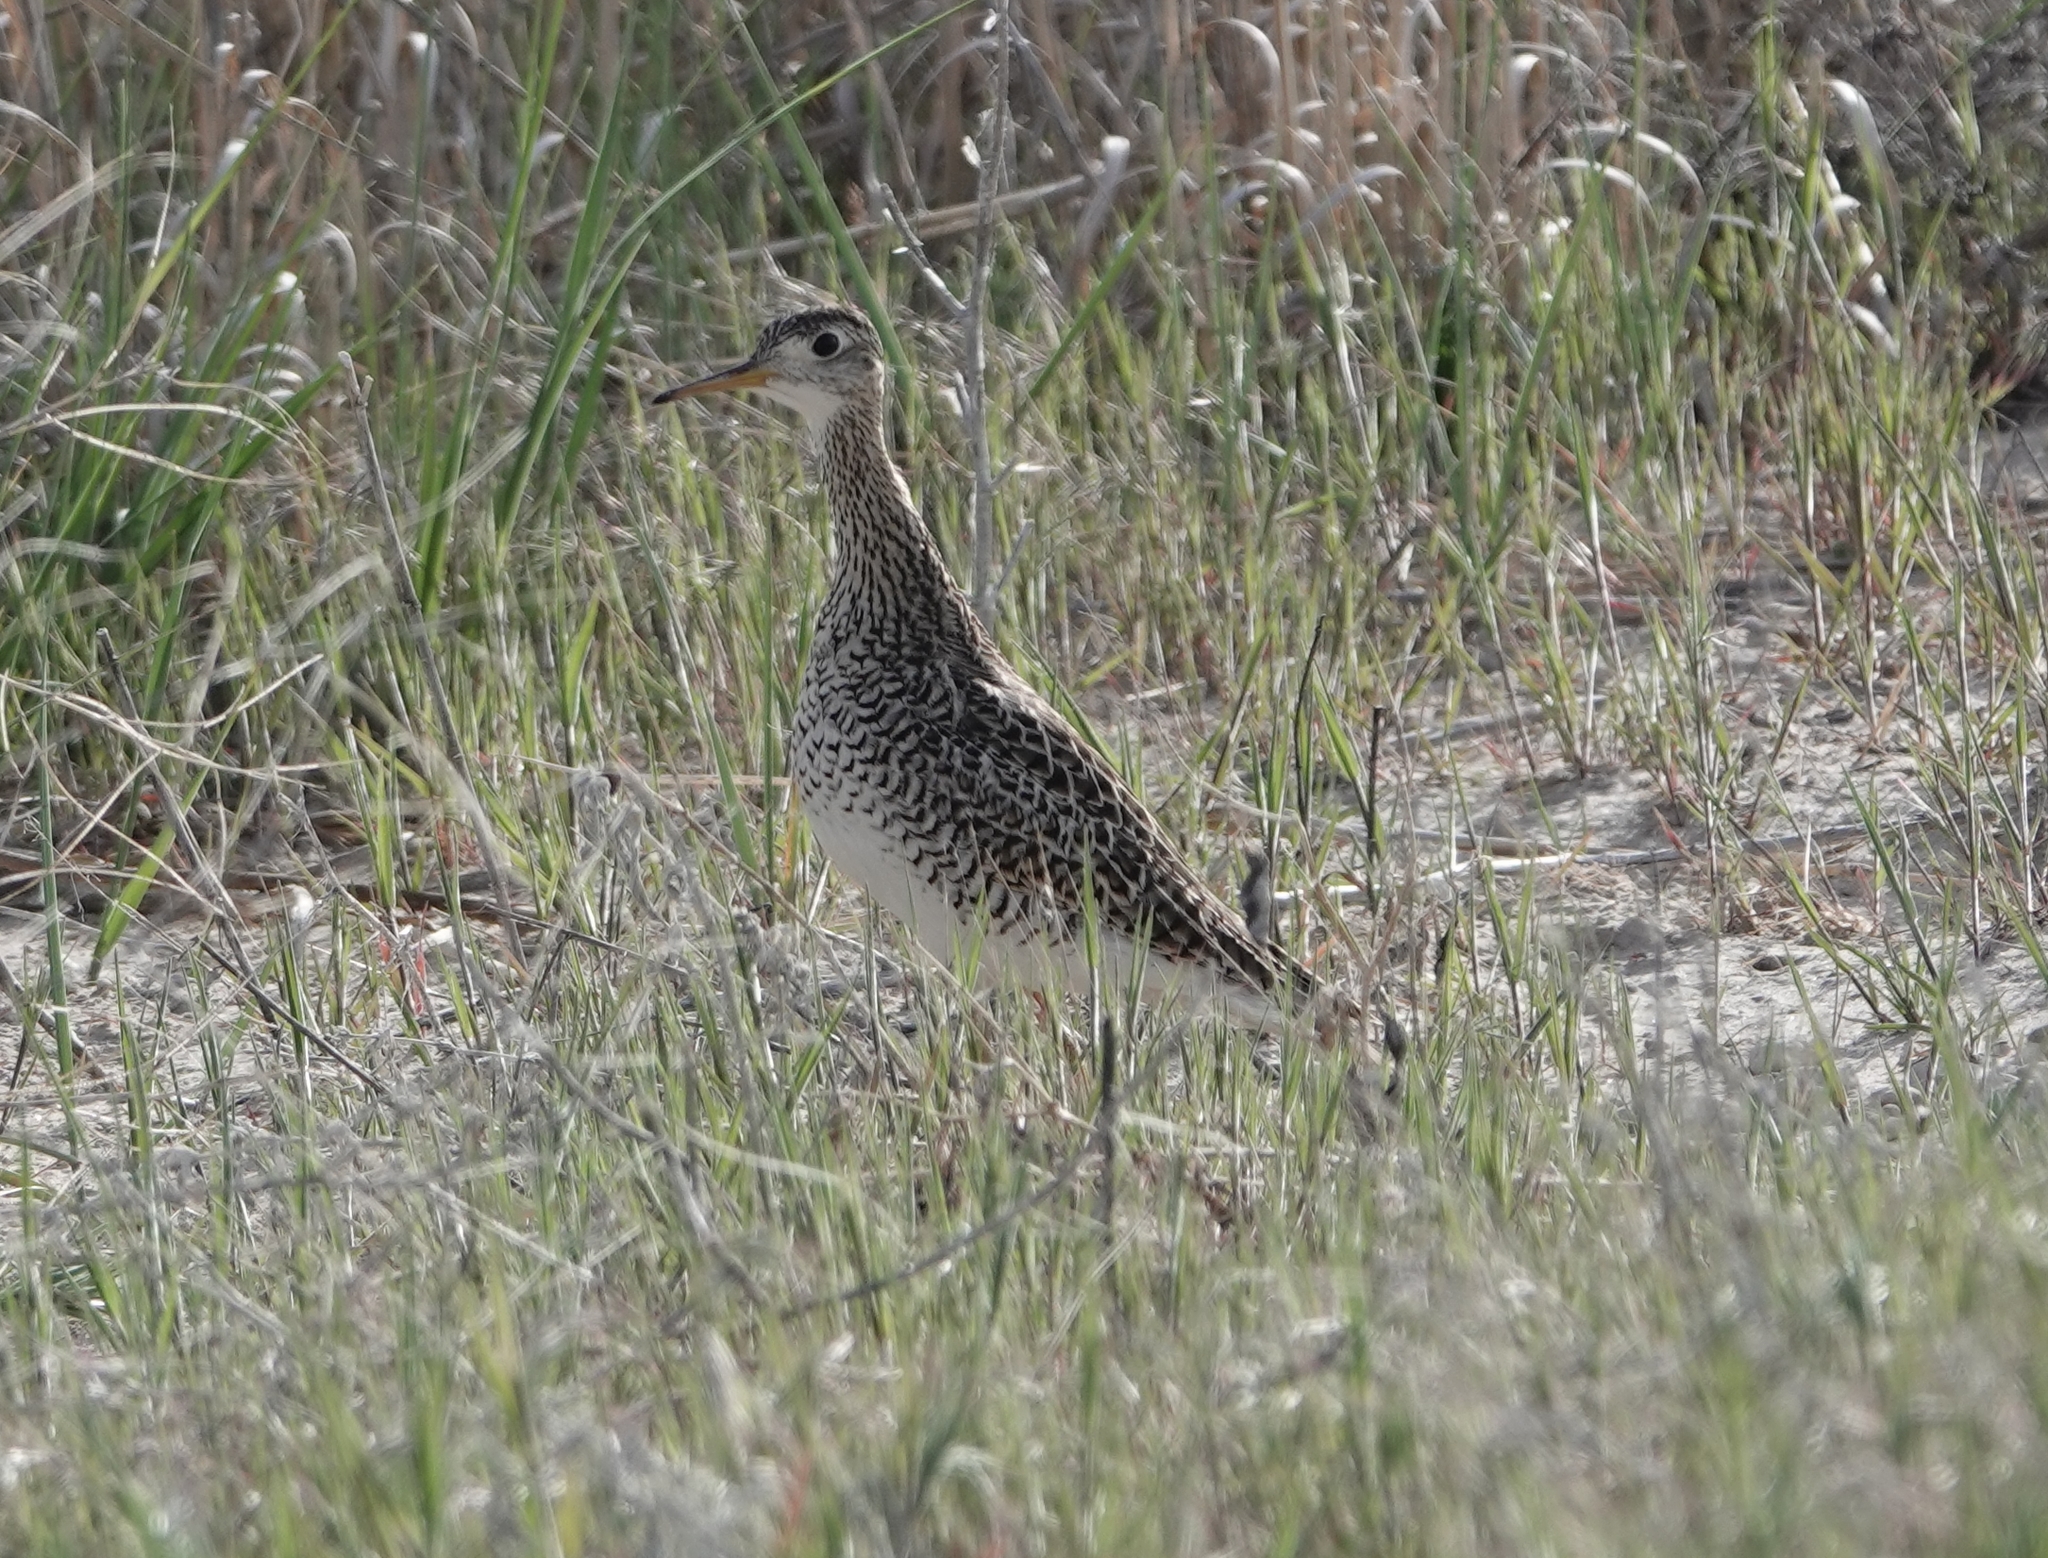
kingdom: Animalia
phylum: Chordata
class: Aves
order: Charadriiformes
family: Scolopacidae
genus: Bartramia
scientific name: Bartramia longicauda
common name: Upland sandpiper
